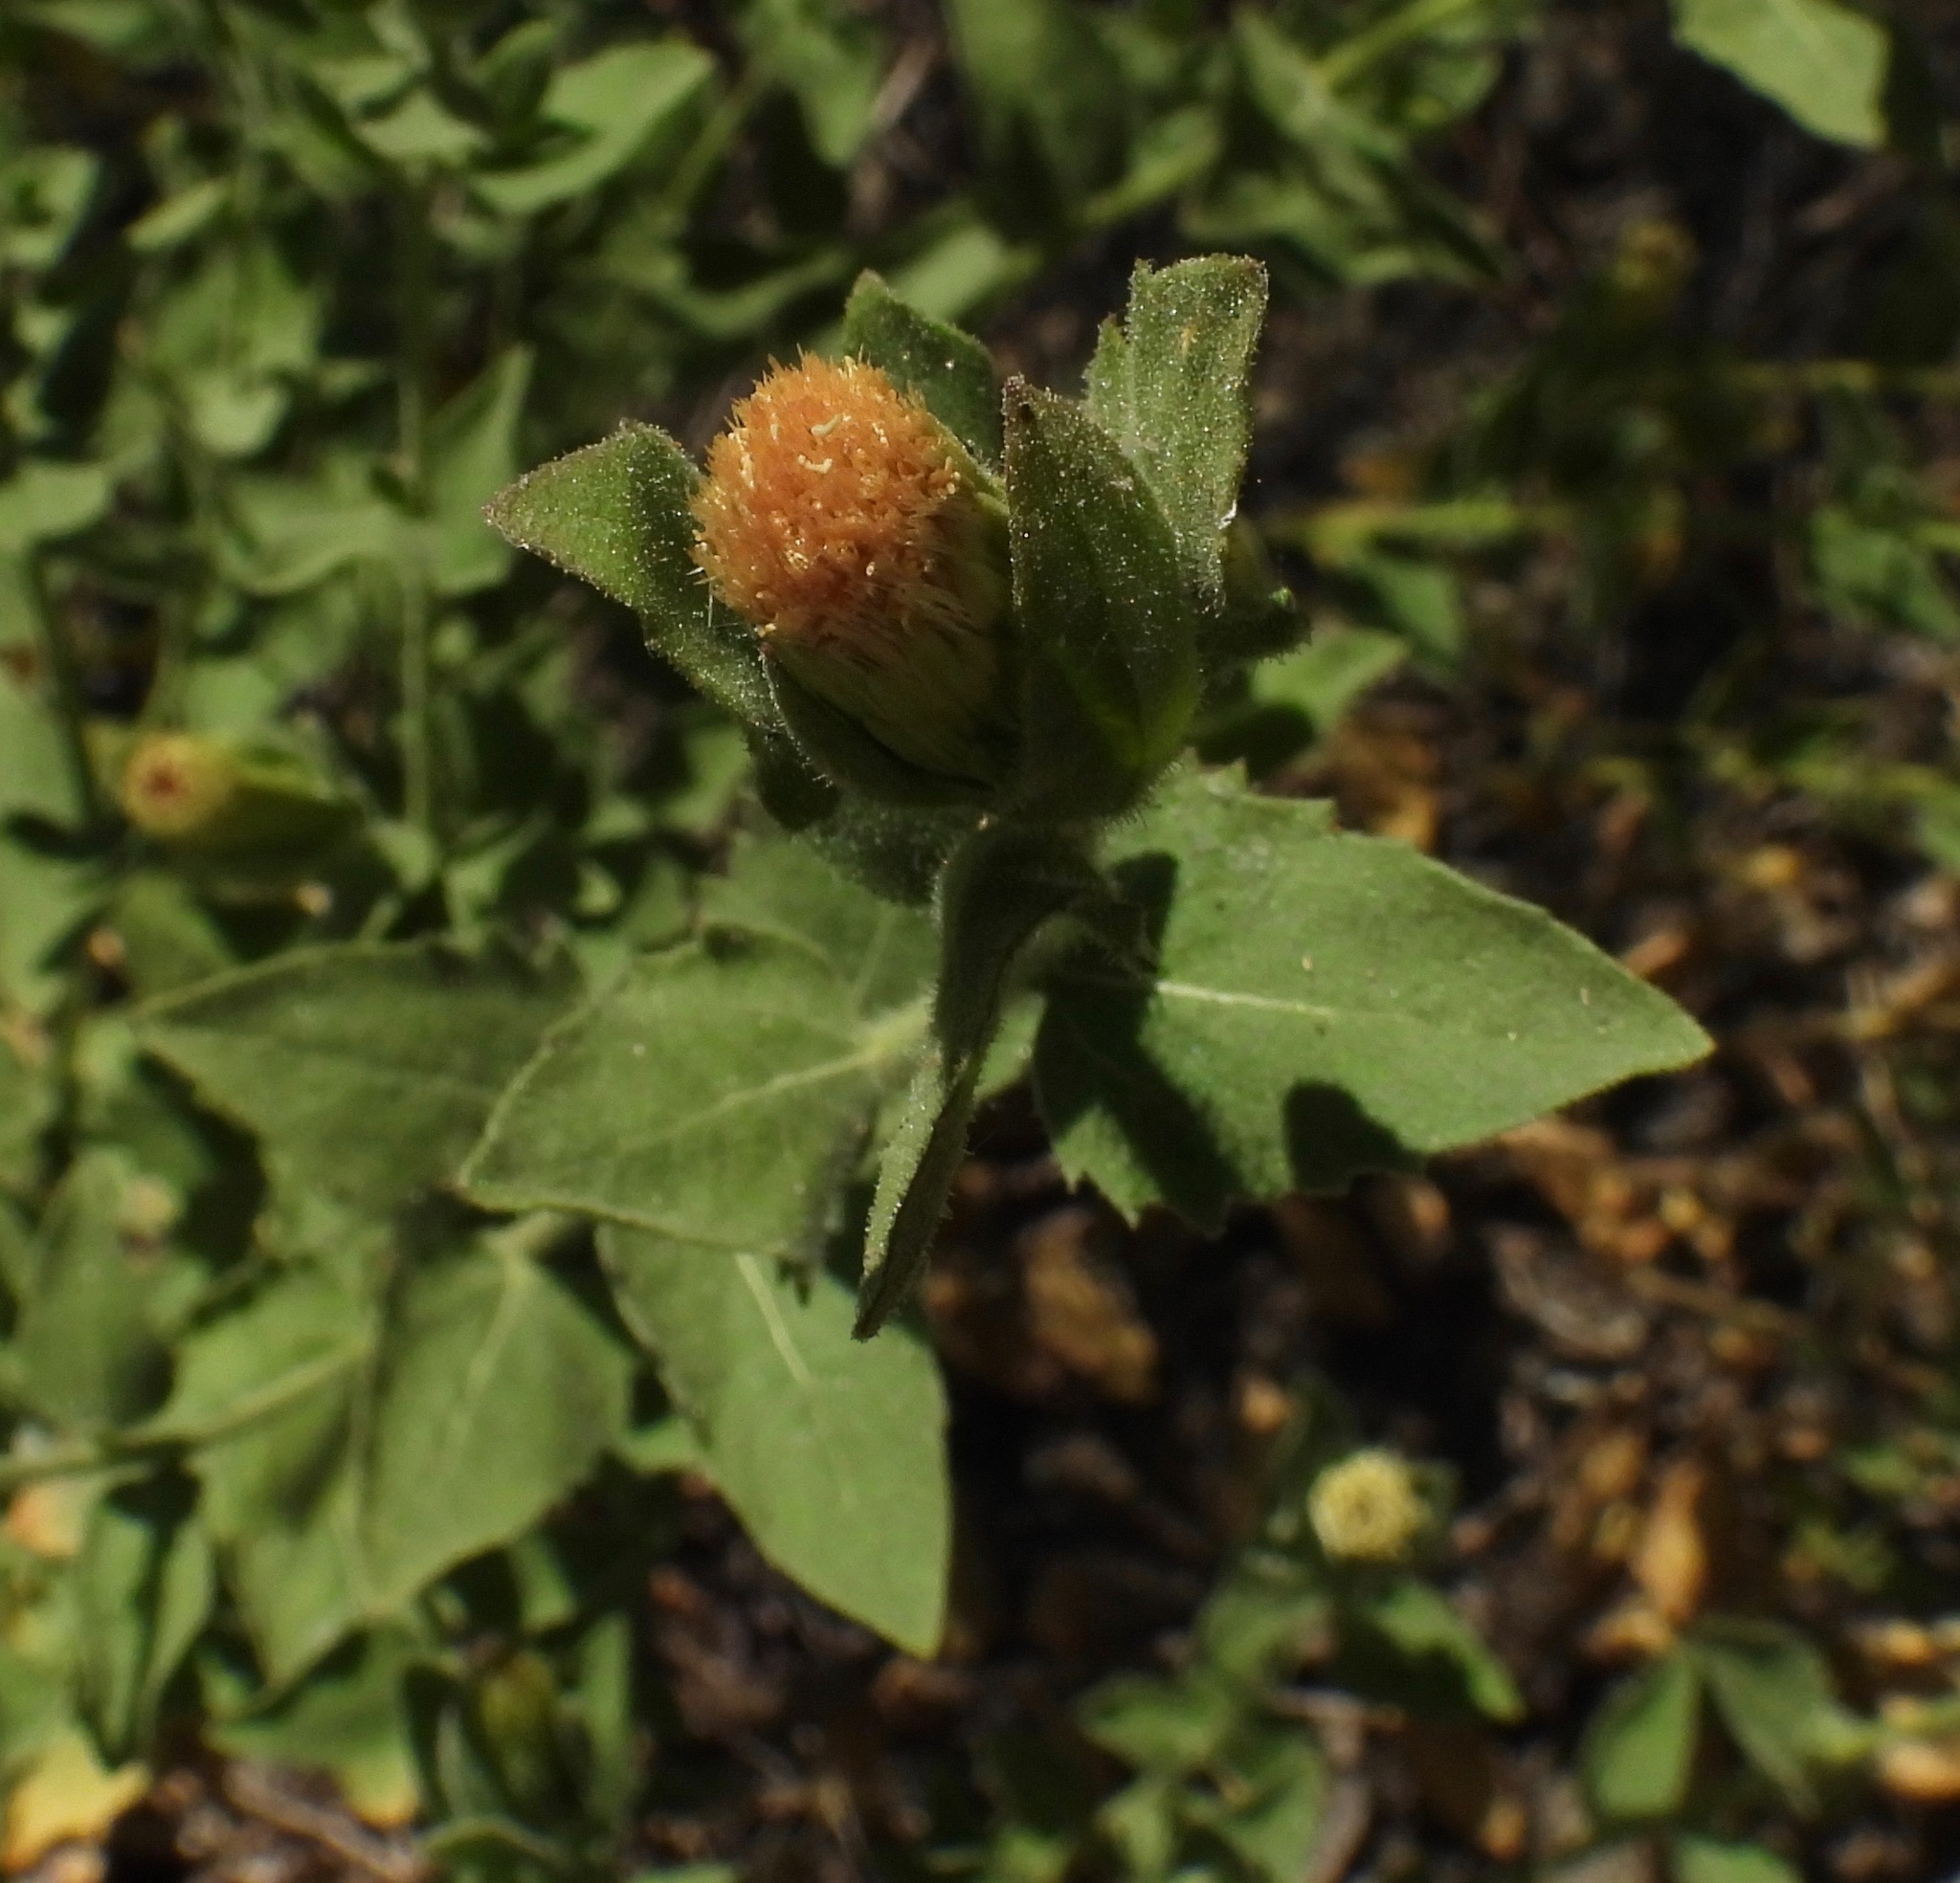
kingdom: Plantae
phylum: Tracheophyta
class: Magnoliopsida
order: Asterales
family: Asteraceae
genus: Brickellia
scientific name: Brickellia greenei
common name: Greene's brickellbush
